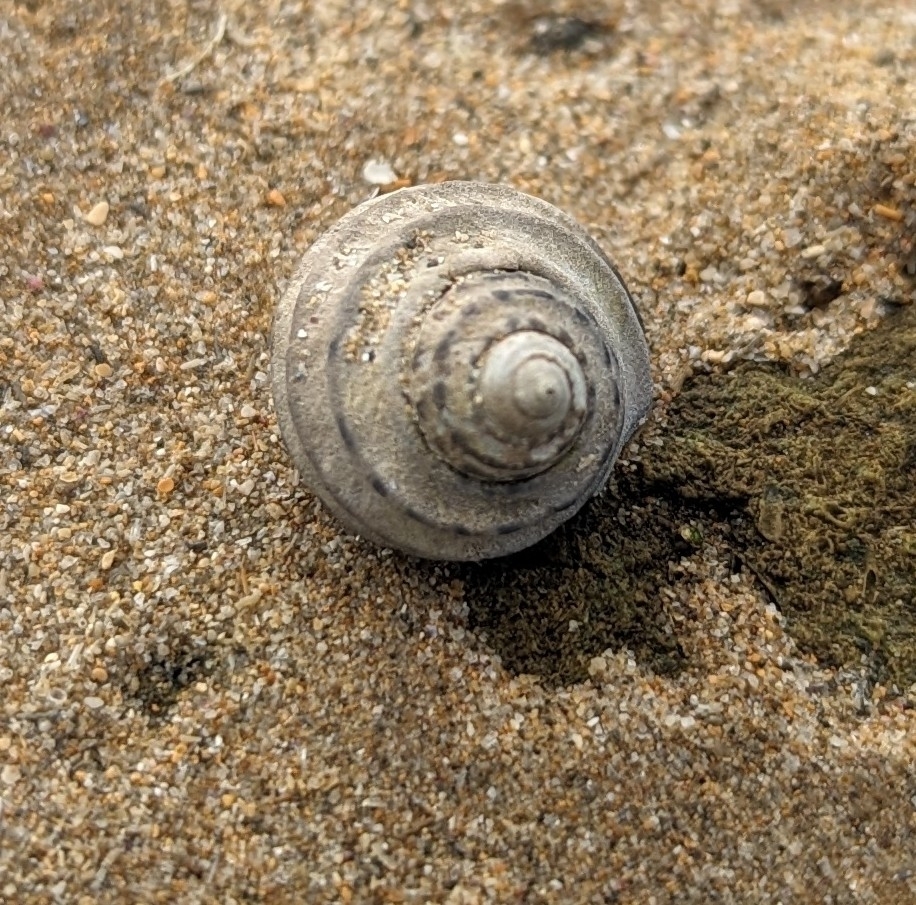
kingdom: Animalia
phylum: Mollusca
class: Gastropoda
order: Trochida
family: Trochidae
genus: Austrocochlea
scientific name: Austrocochlea constricta
